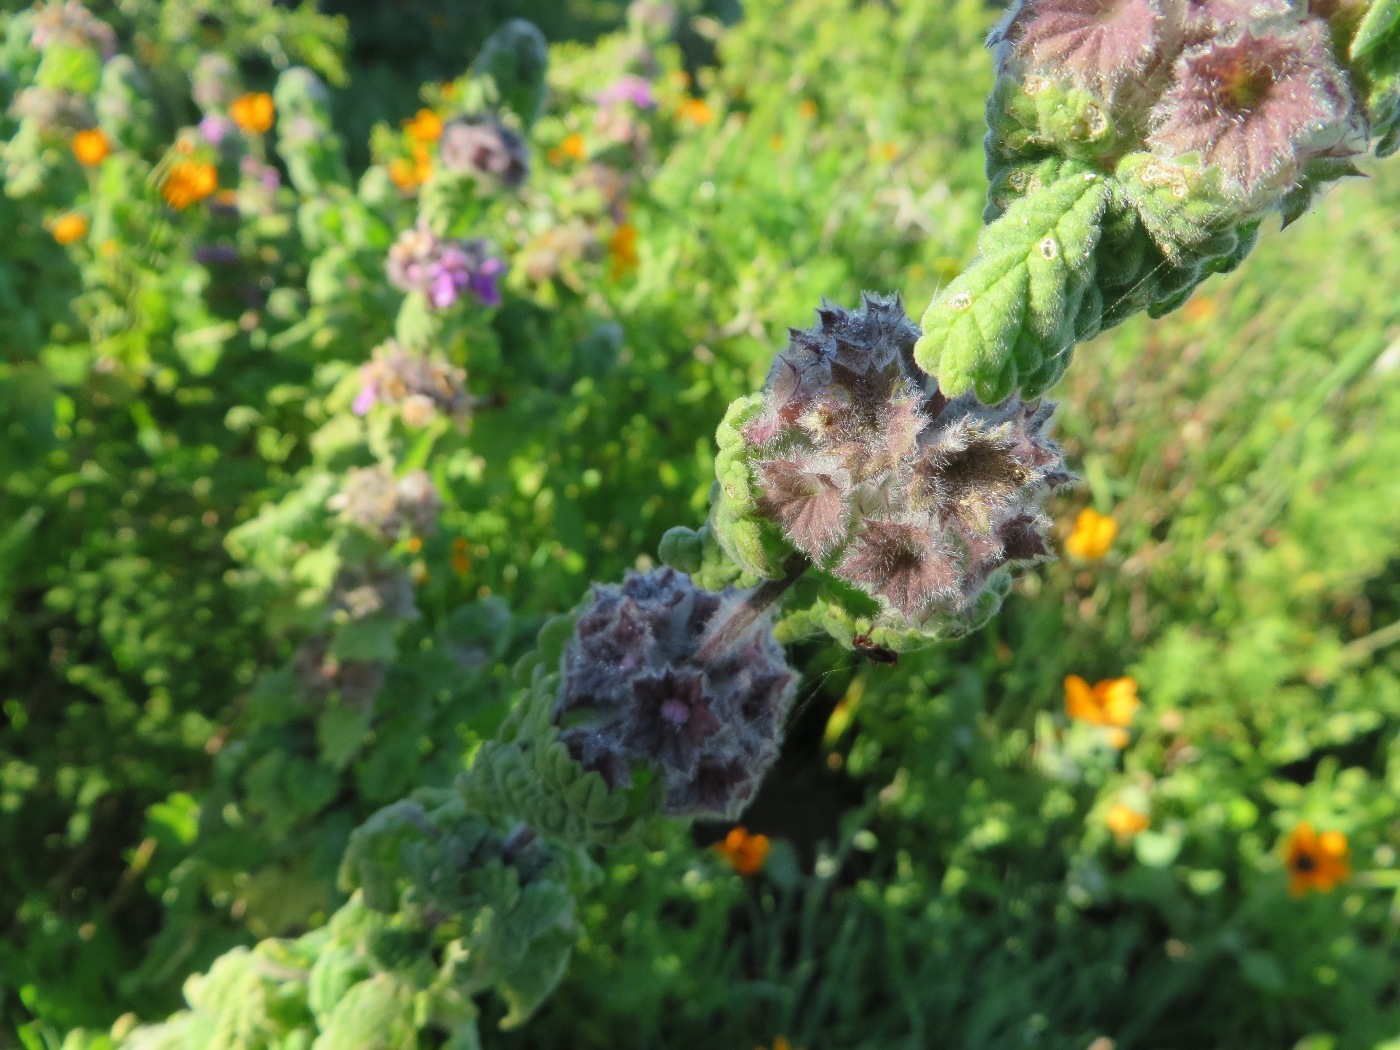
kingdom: Plantae
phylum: Tracheophyta
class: Magnoliopsida
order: Lamiales
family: Lamiaceae
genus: Pseudodictamnus
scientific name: Pseudodictamnus africanus
